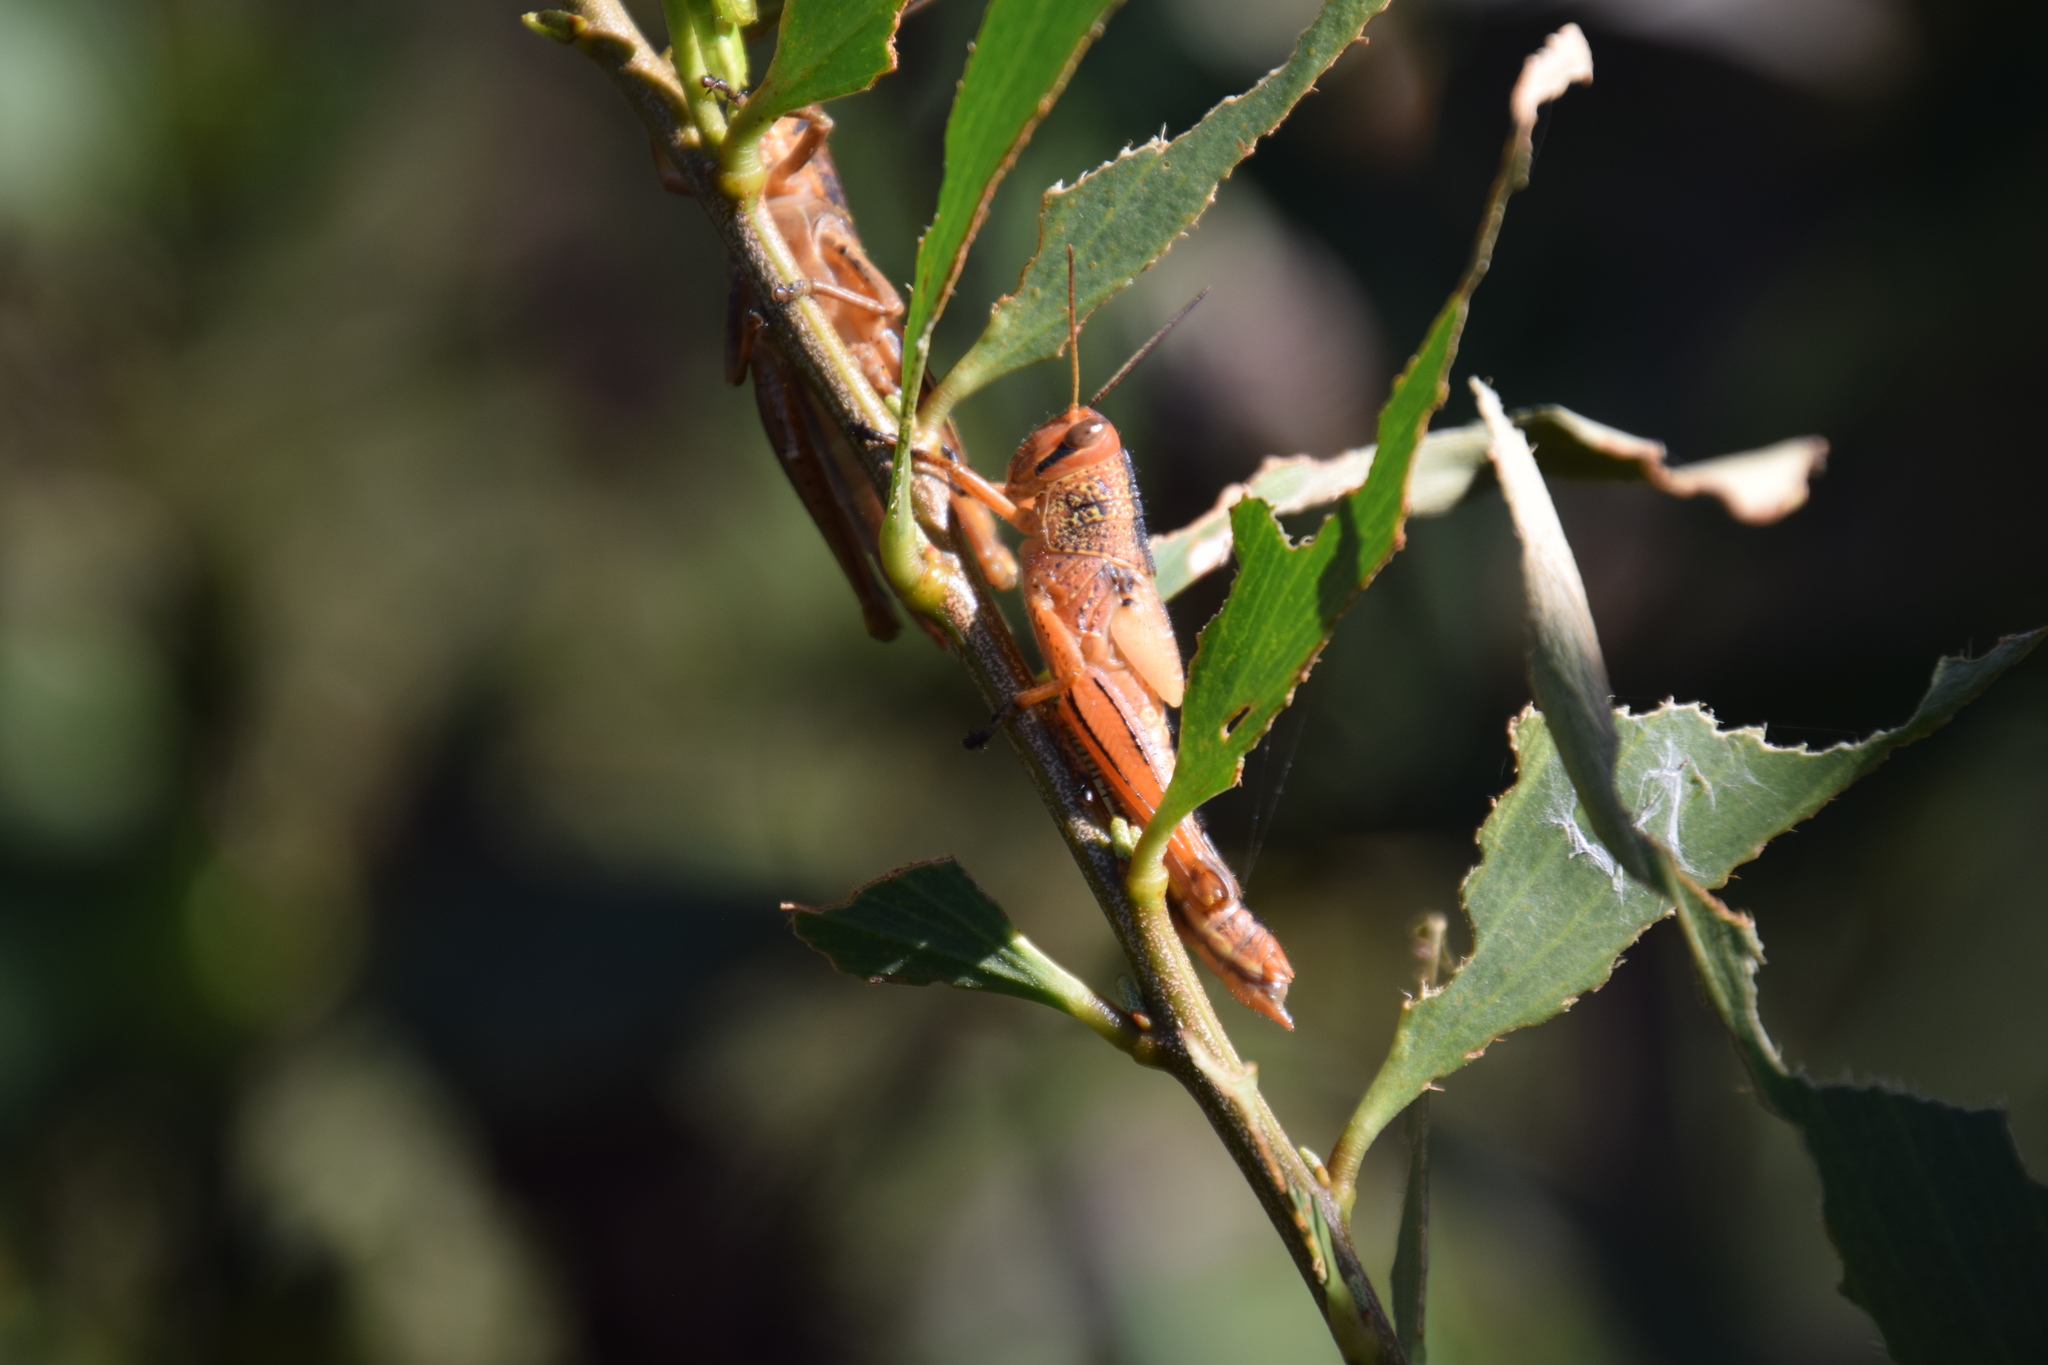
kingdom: Animalia
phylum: Arthropoda
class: Insecta
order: Orthoptera
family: Acrididae
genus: Valanga
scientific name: Valanga irregularis
